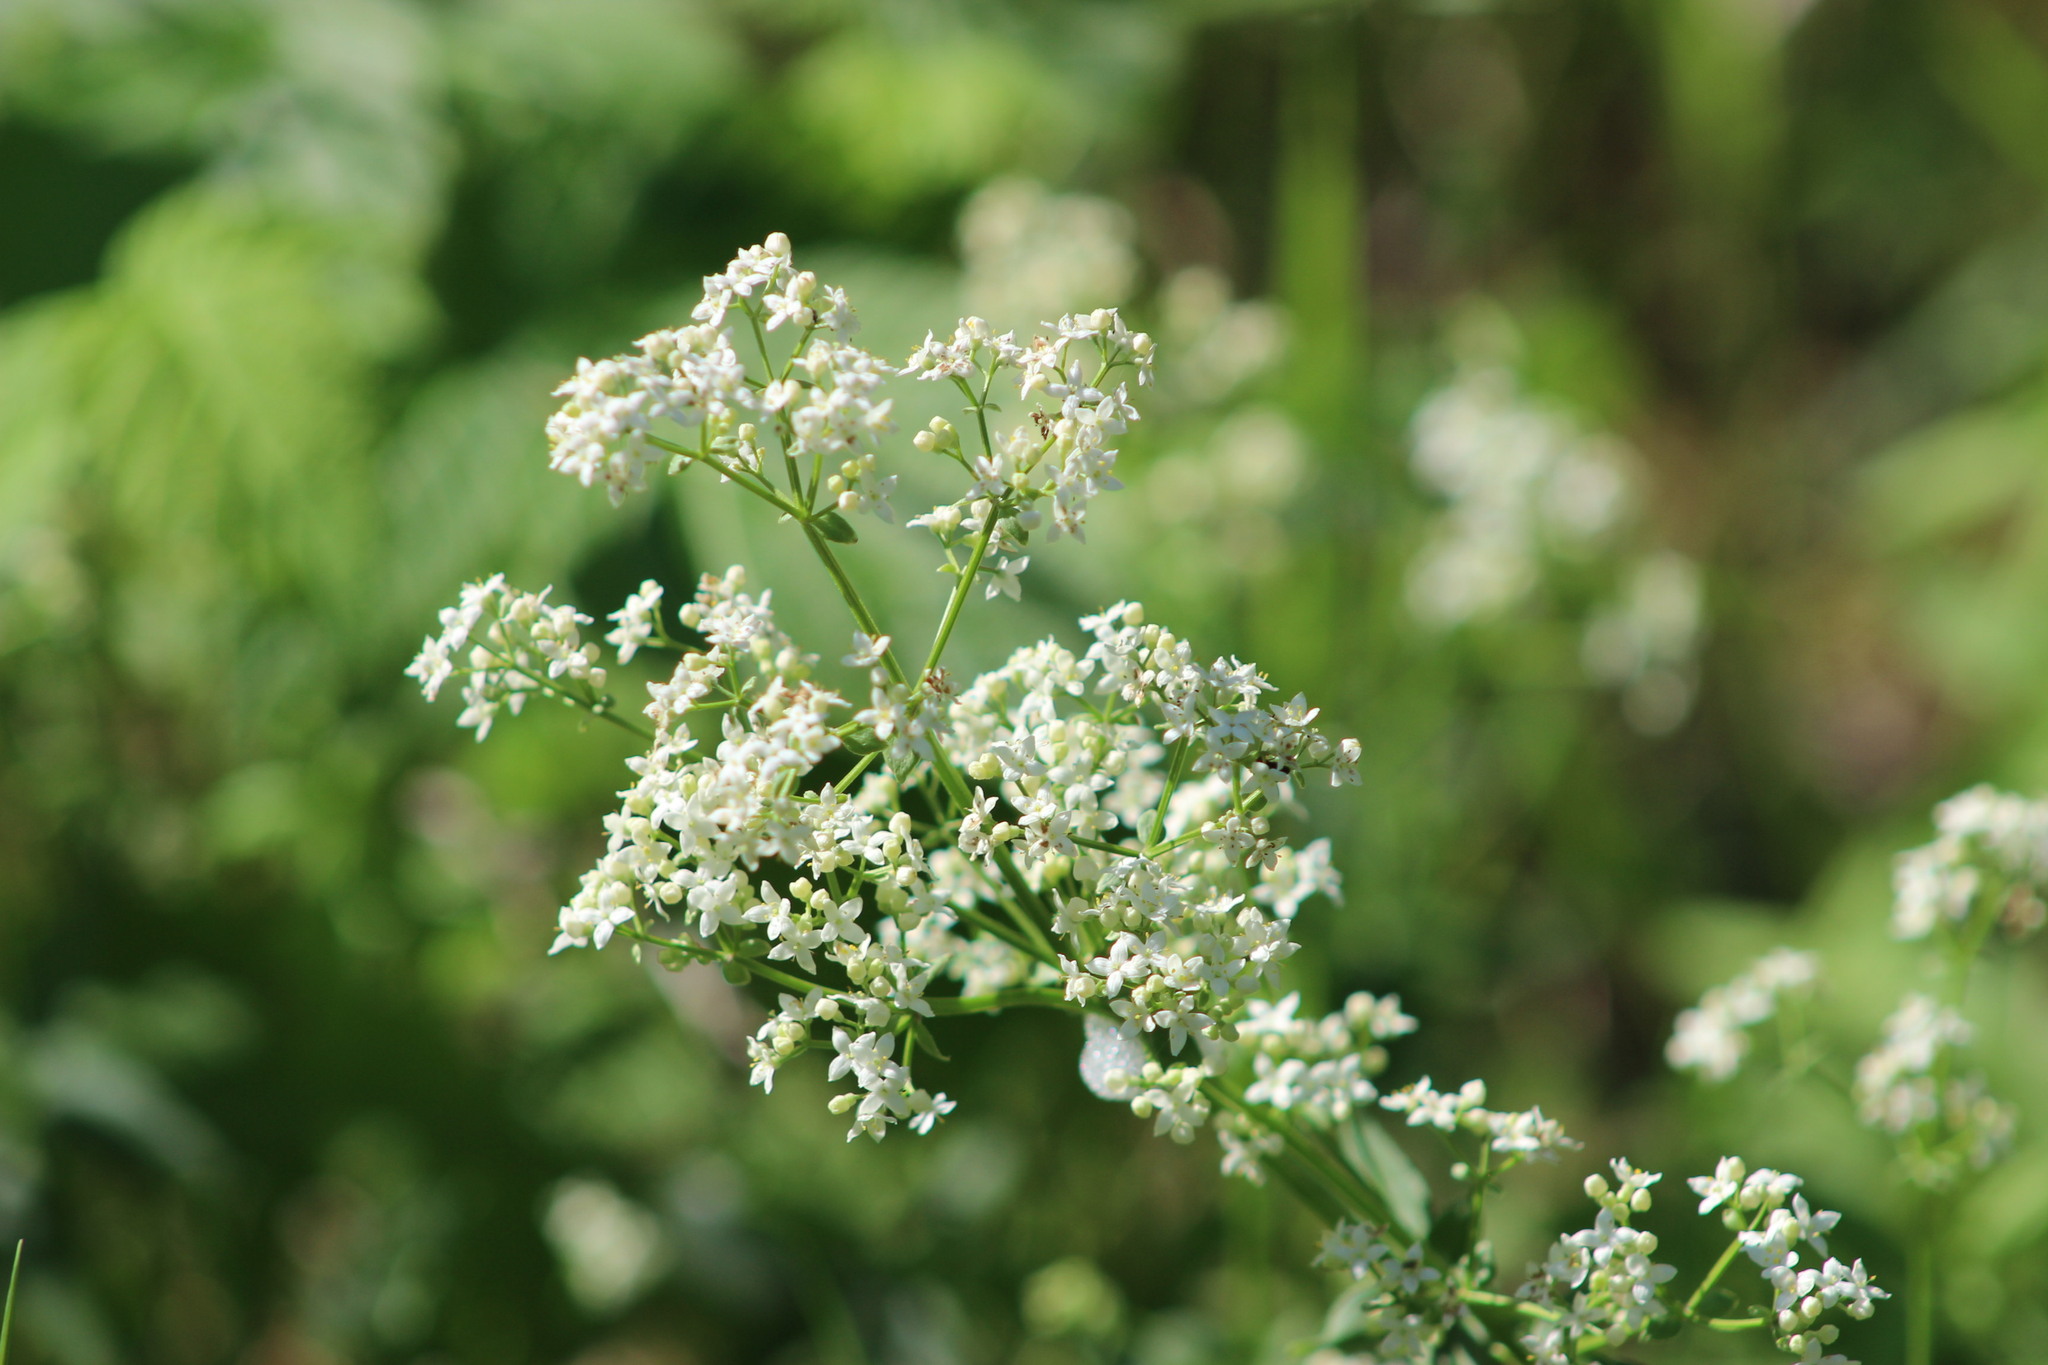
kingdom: Plantae
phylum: Tracheophyta
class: Magnoliopsida
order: Gentianales
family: Rubiaceae
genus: Galium
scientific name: Galium boreale
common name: Northern bedstraw
